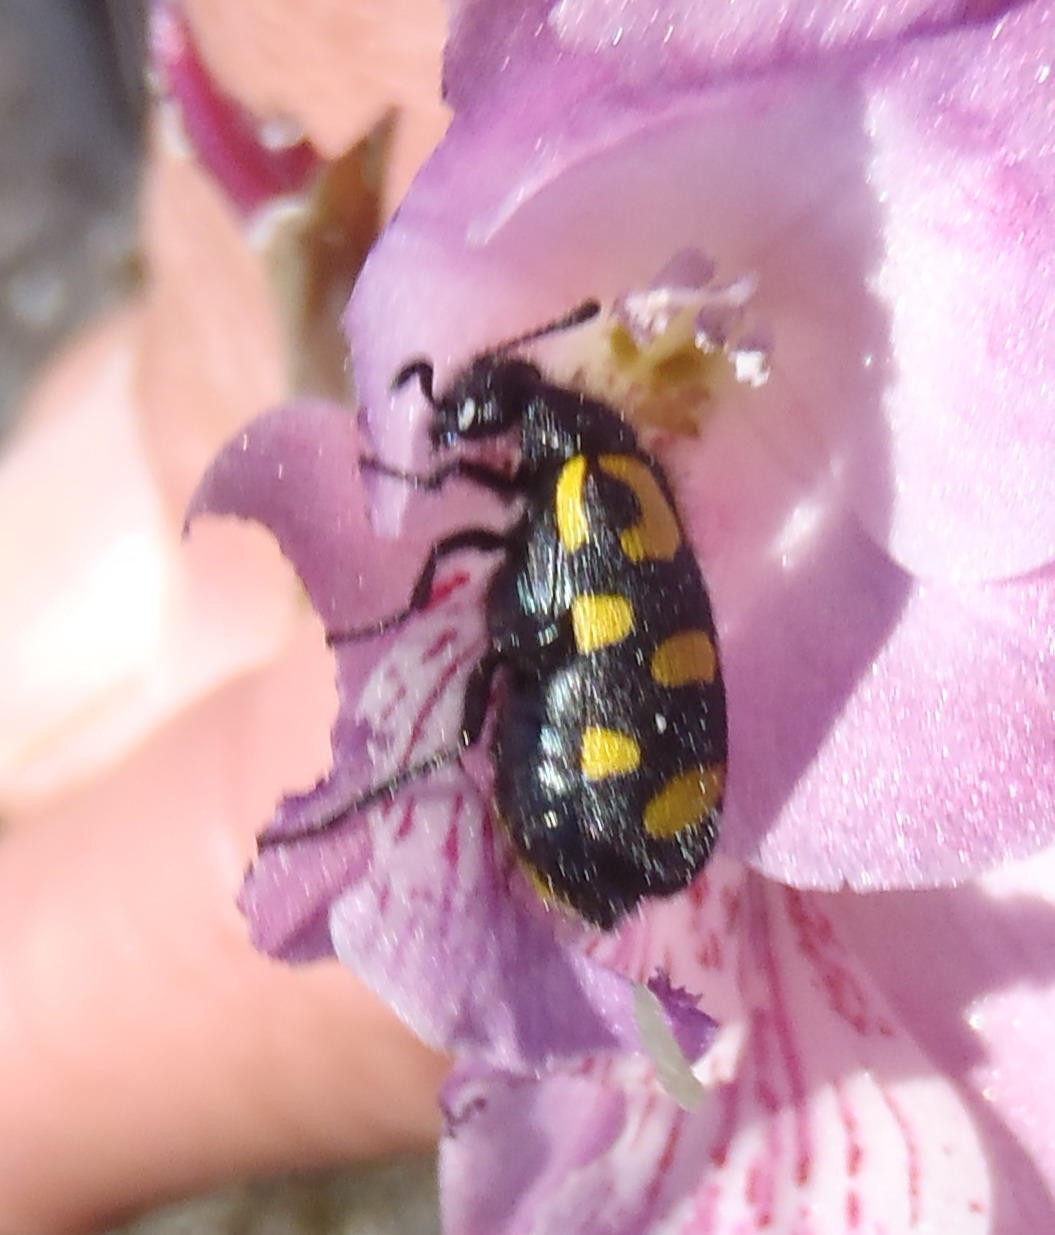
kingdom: Animalia
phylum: Arthropoda
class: Insecta
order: Coleoptera
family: Meloidae
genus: Ceroctis
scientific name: Ceroctis capensis
